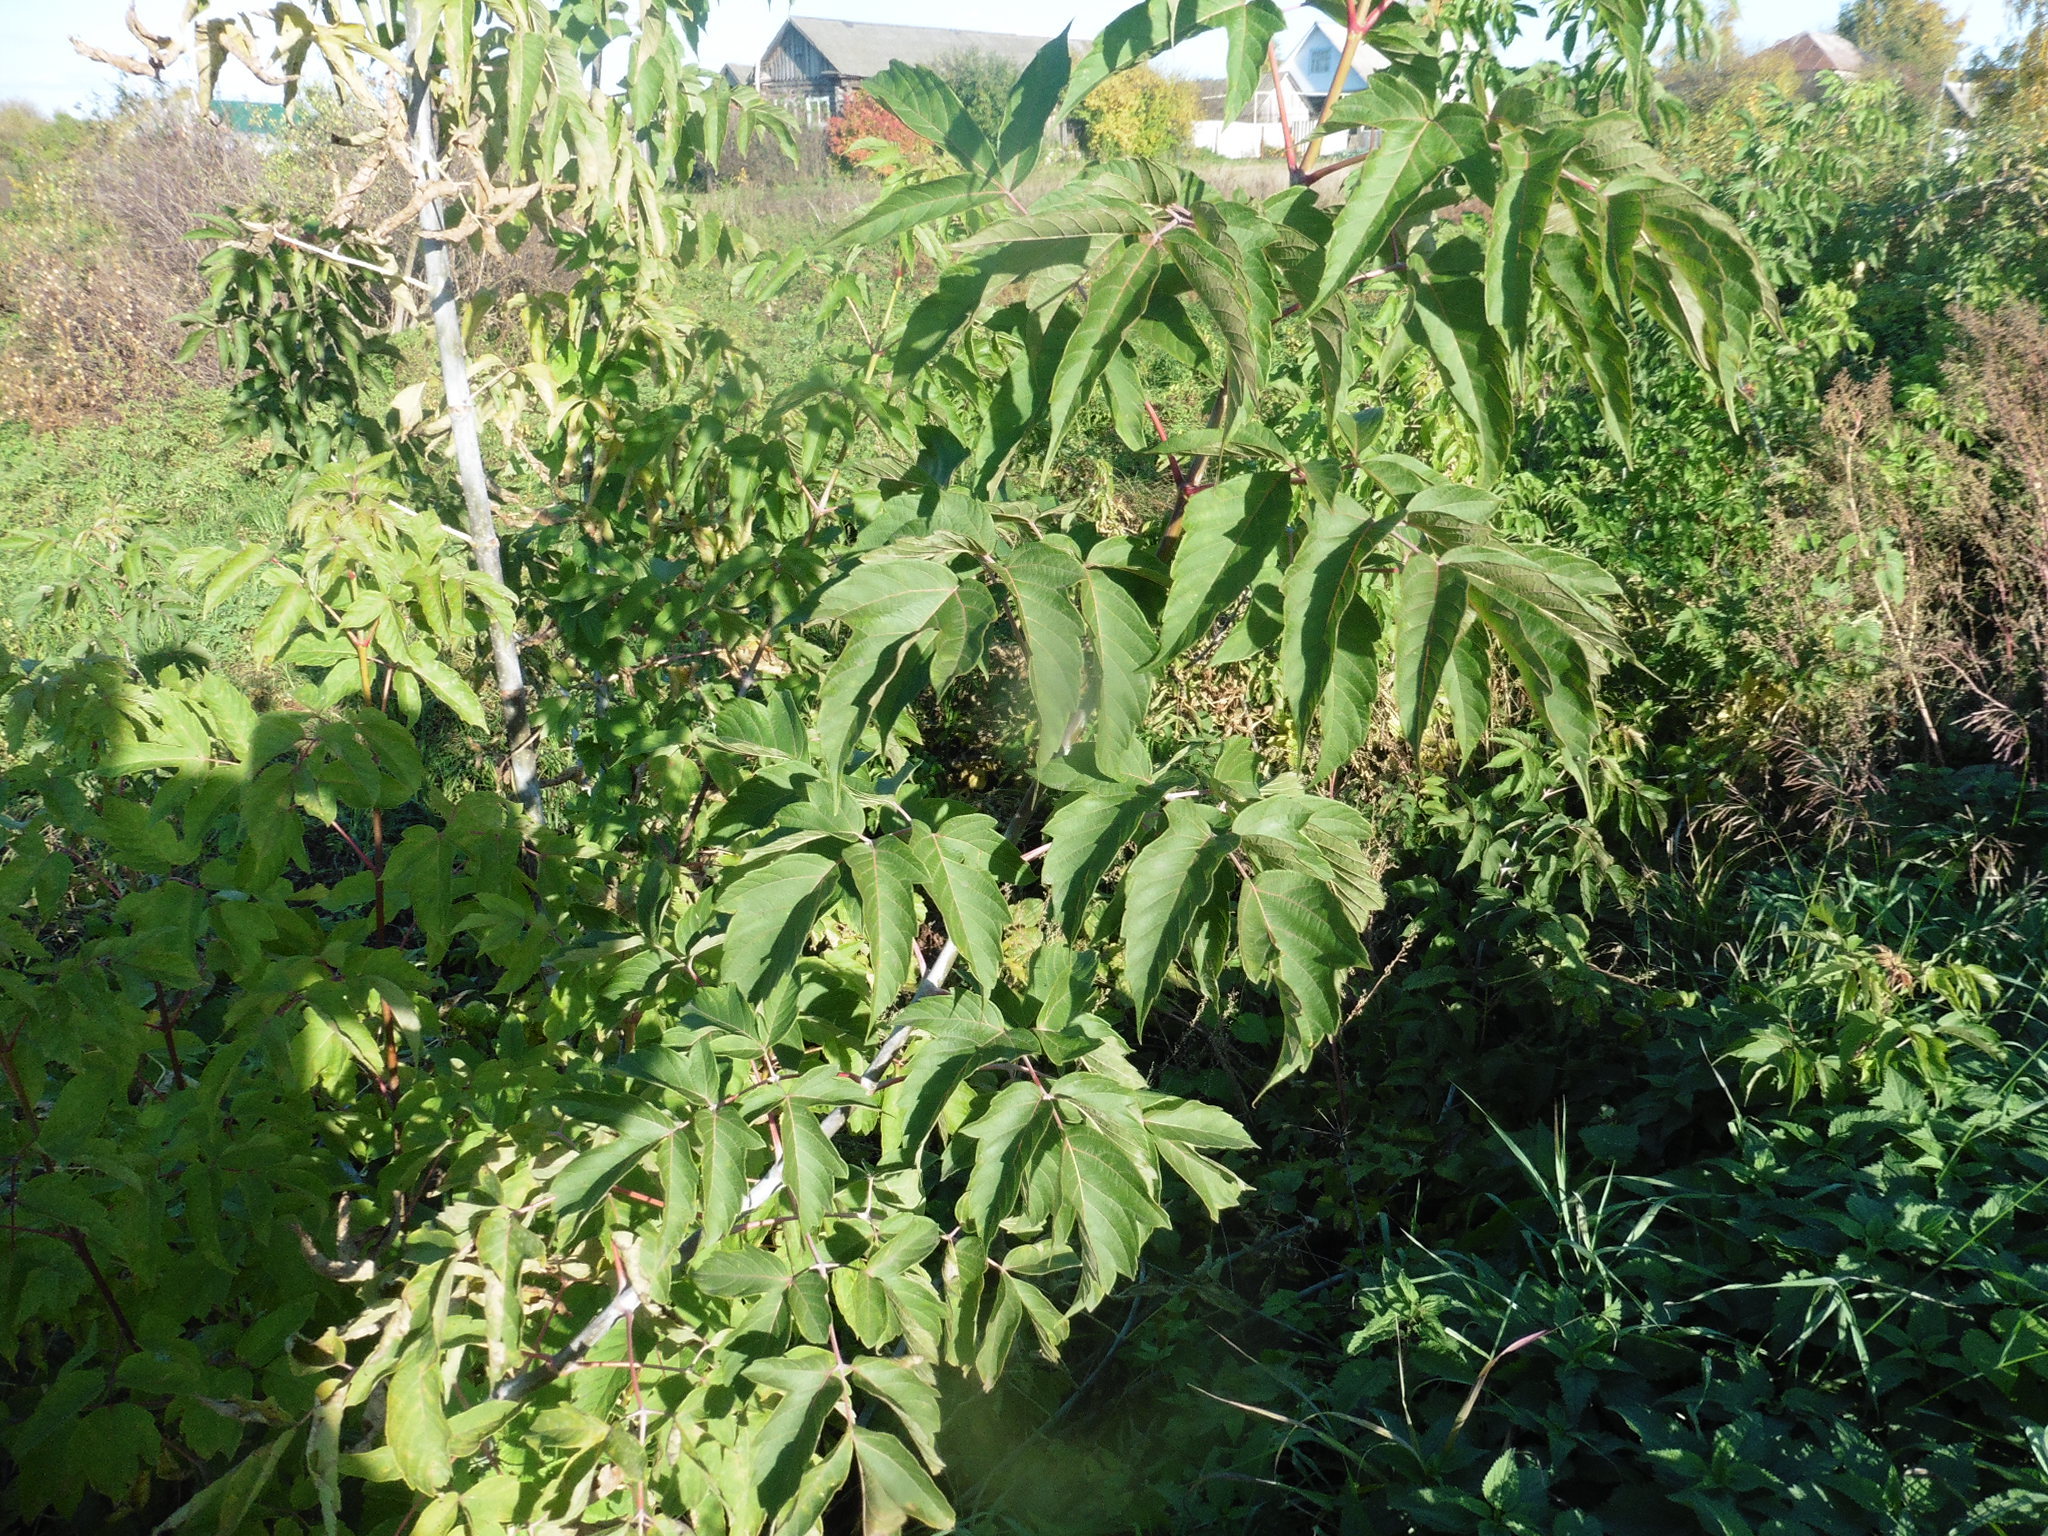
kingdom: Plantae
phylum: Tracheophyta
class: Magnoliopsida
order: Sapindales
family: Sapindaceae
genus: Acer
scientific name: Acer negundo
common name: Ashleaf maple
